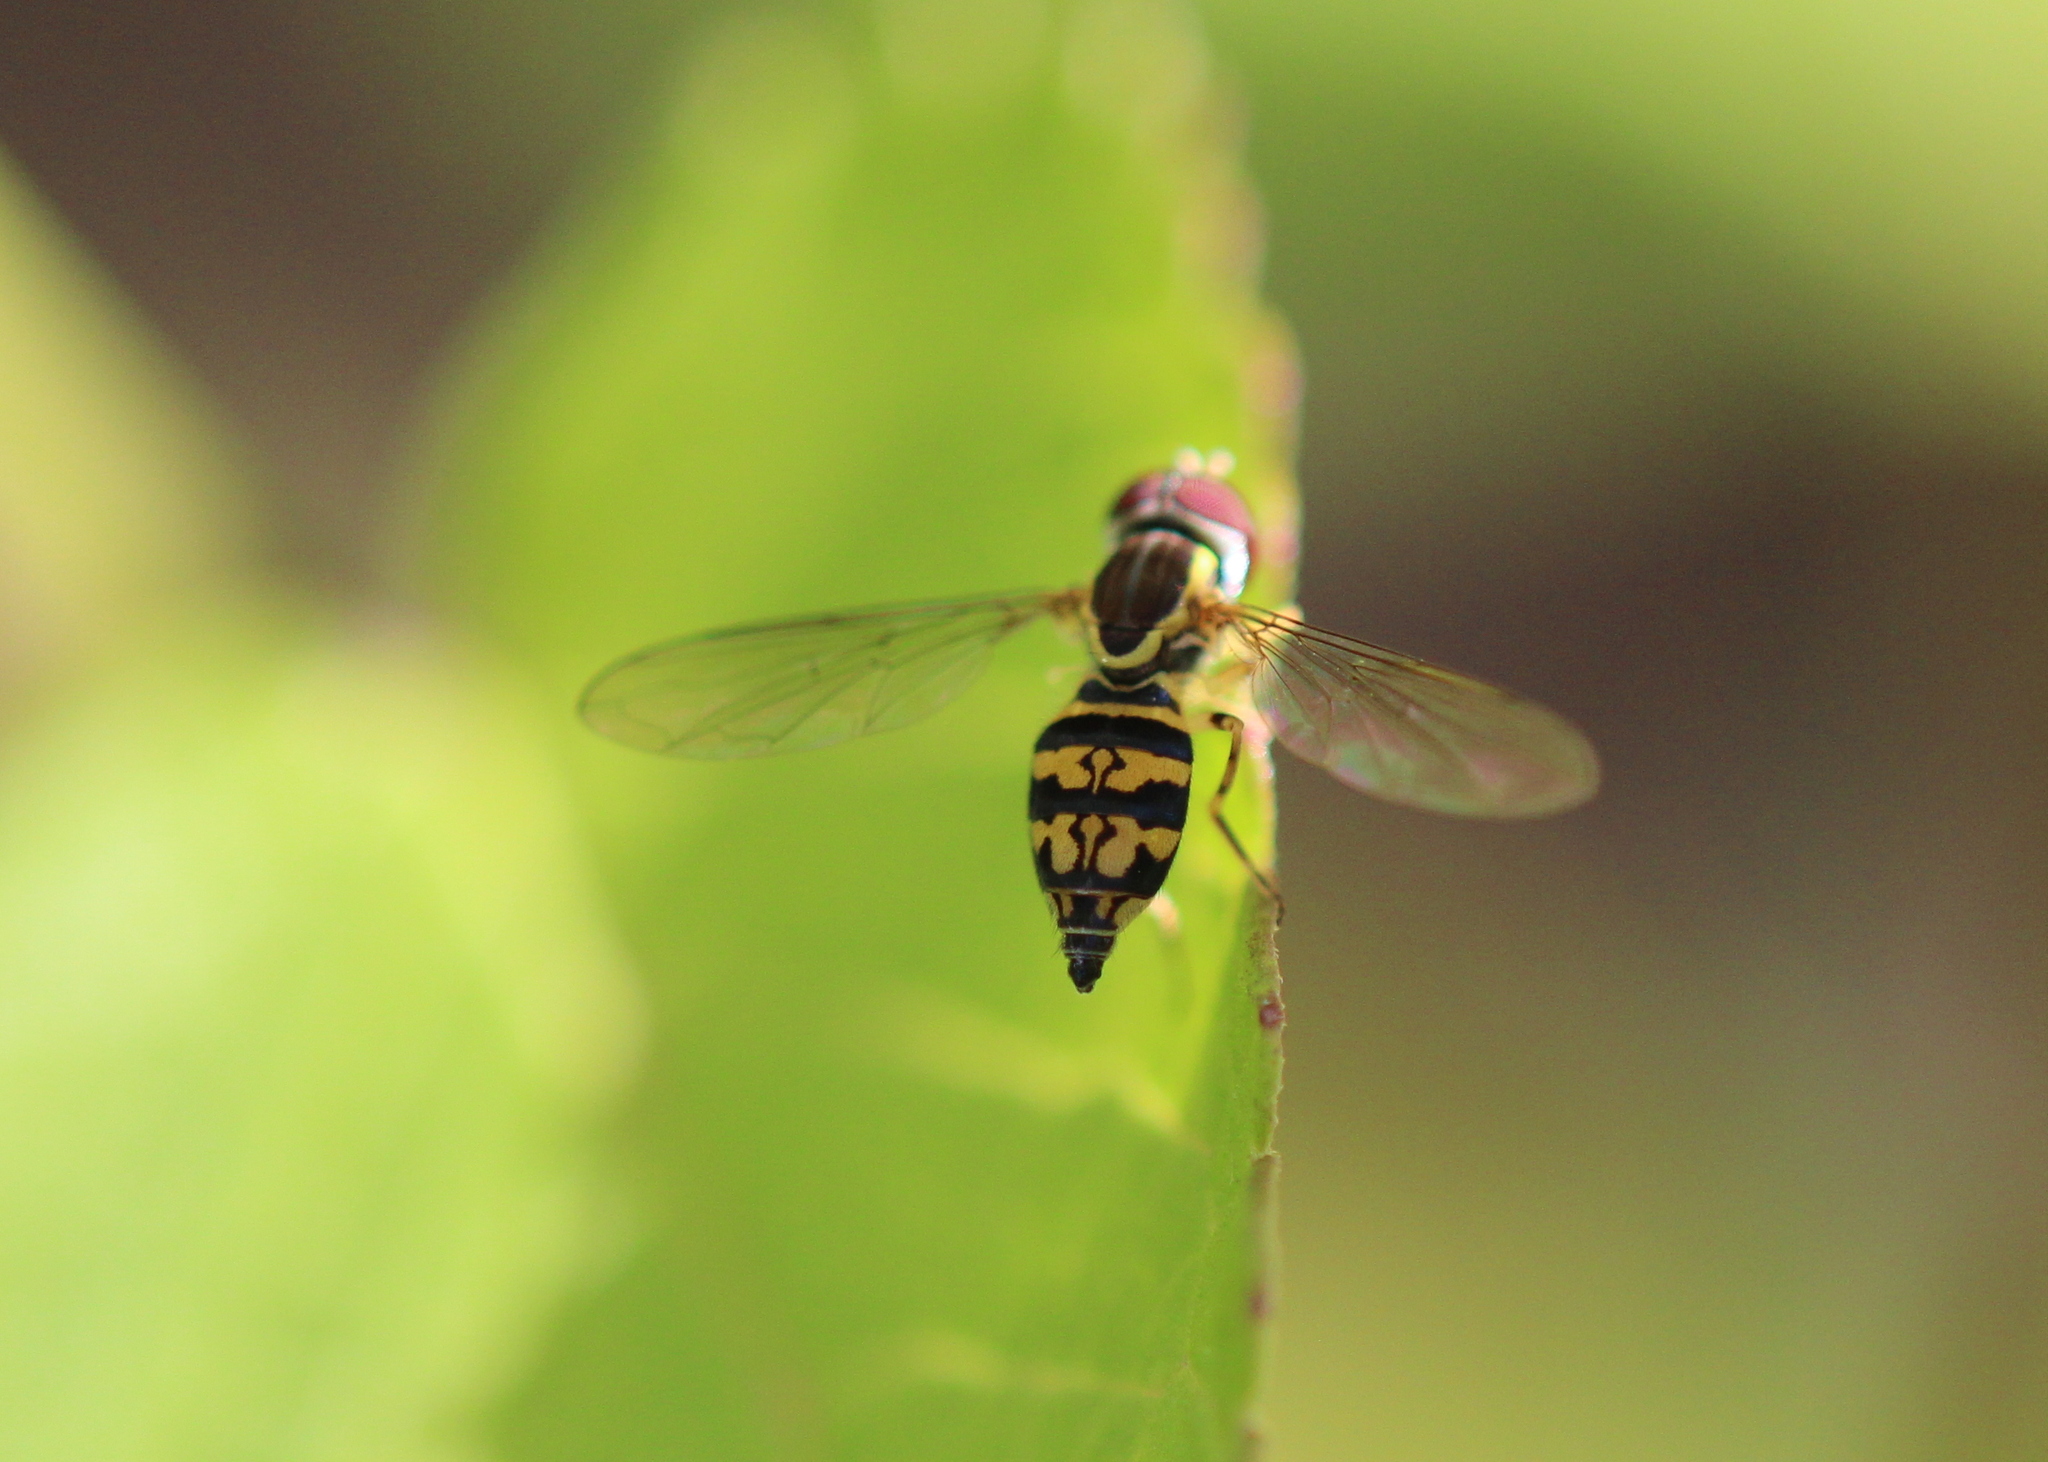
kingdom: Animalia
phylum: Arthropoda
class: Insecta
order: Diptera
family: Syrphidae
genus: Toxomerus
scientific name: Toxomerus geminatus
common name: Eastern calligrapher
